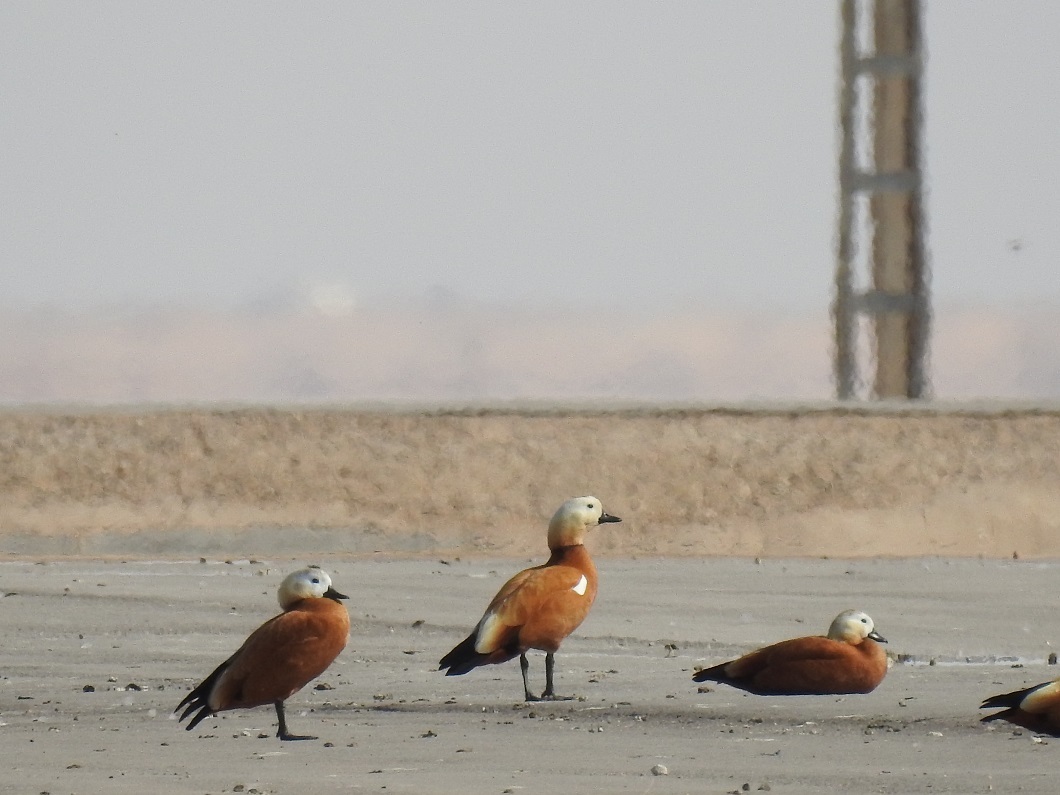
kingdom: Animalia
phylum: Chordata
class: Aves
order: Anseriformes
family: Anatidae
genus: Tadorna
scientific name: Tadorna ferruginea
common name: Ruddy shelduck
